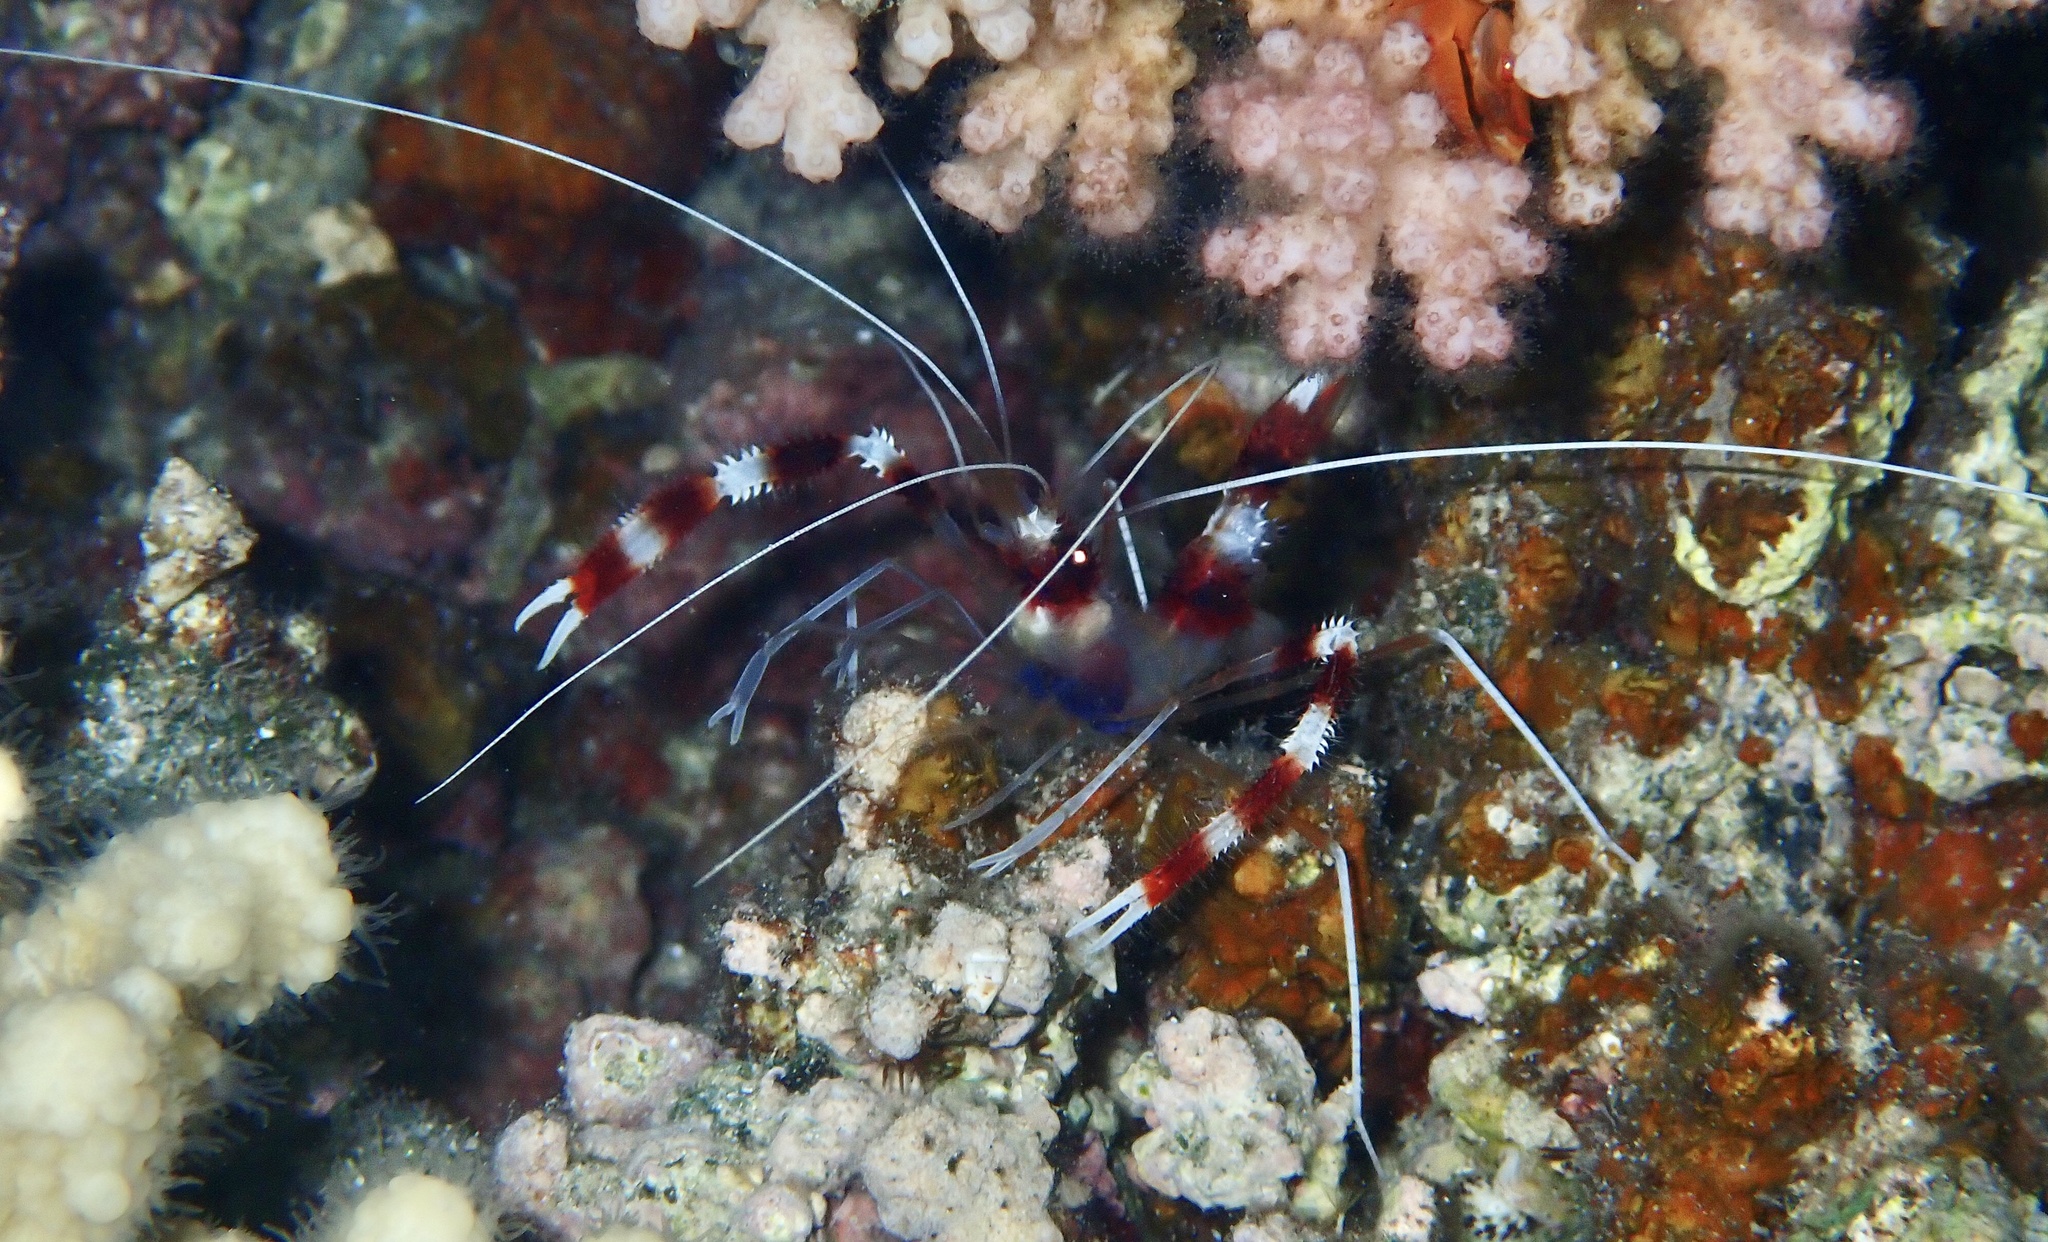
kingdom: Animalia
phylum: Arthropoda
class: Malacostraca
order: Decapoda
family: Stenopodidae
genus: Stenopus
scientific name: Stenopus hispidus
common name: Banded coral shrimp
